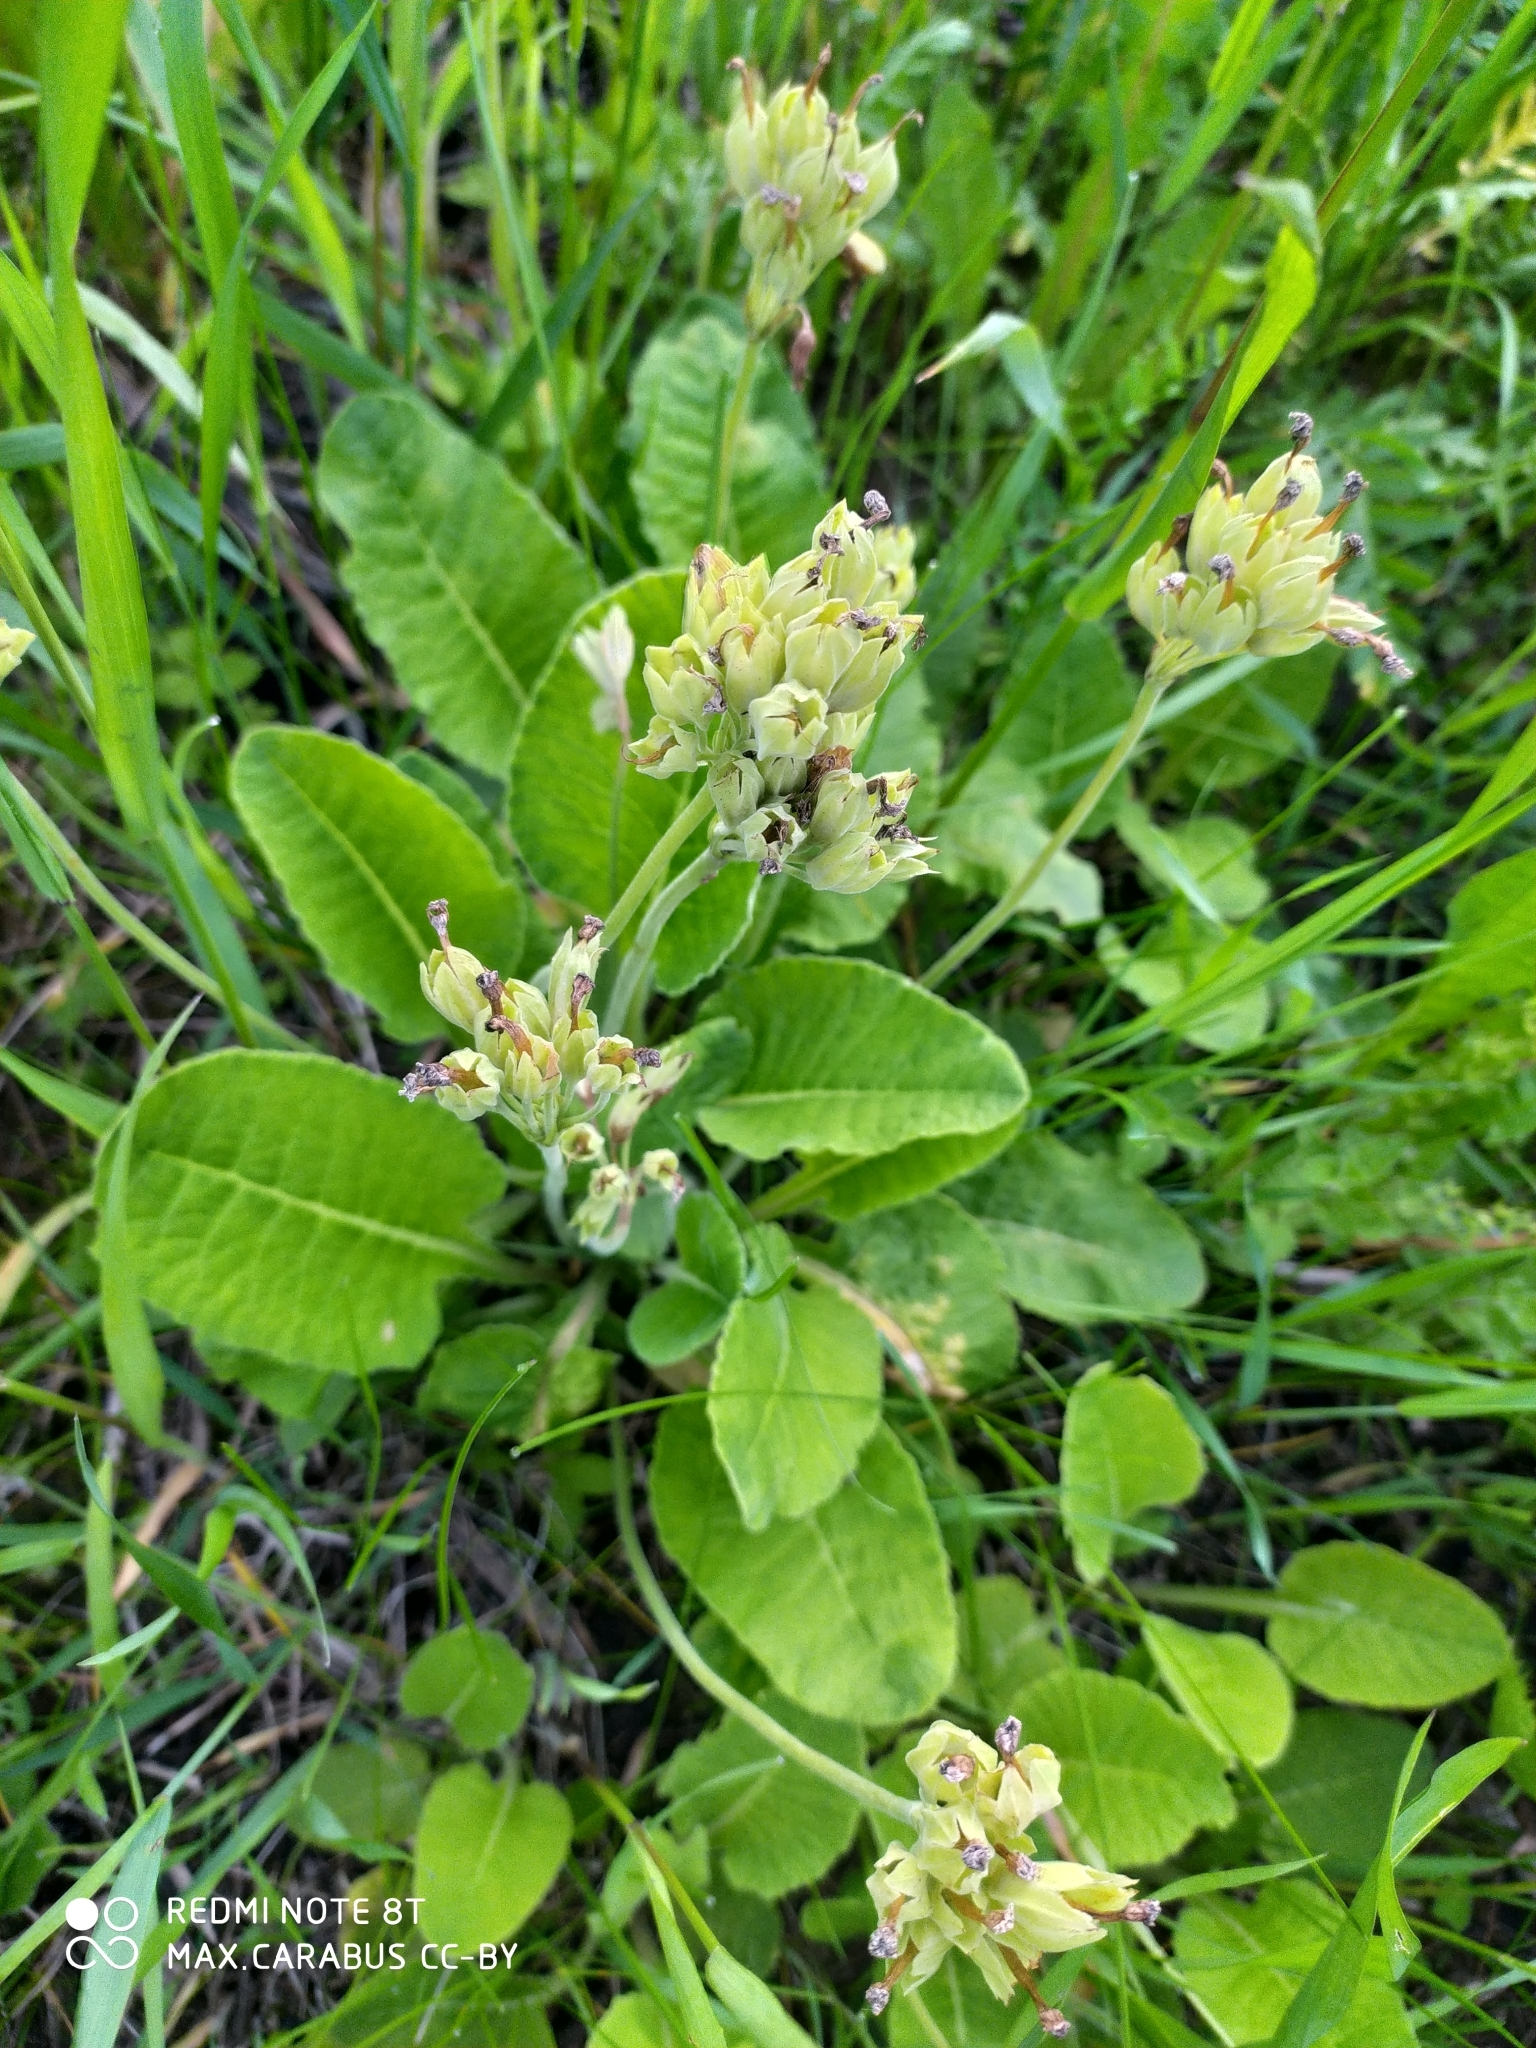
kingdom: Plantae
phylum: Tracheophyta
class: Magnoliopsida
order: Ericales
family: Primulaceae
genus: Primula
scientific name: Primula veris
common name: Cowslip
